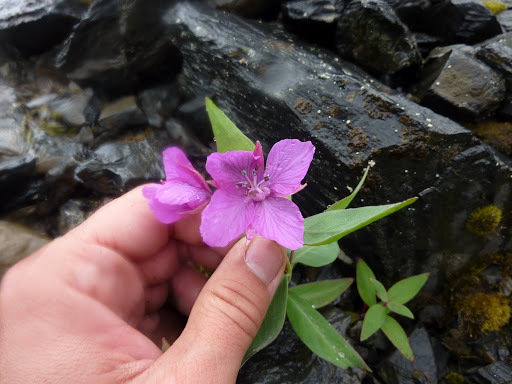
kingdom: Plantae
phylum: Tracheophyta
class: Magnoliopsida
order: Myrtales
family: Onagraceae
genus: Chamaenerion
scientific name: Chamaenerion latifolium
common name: Dwarf fireweed
